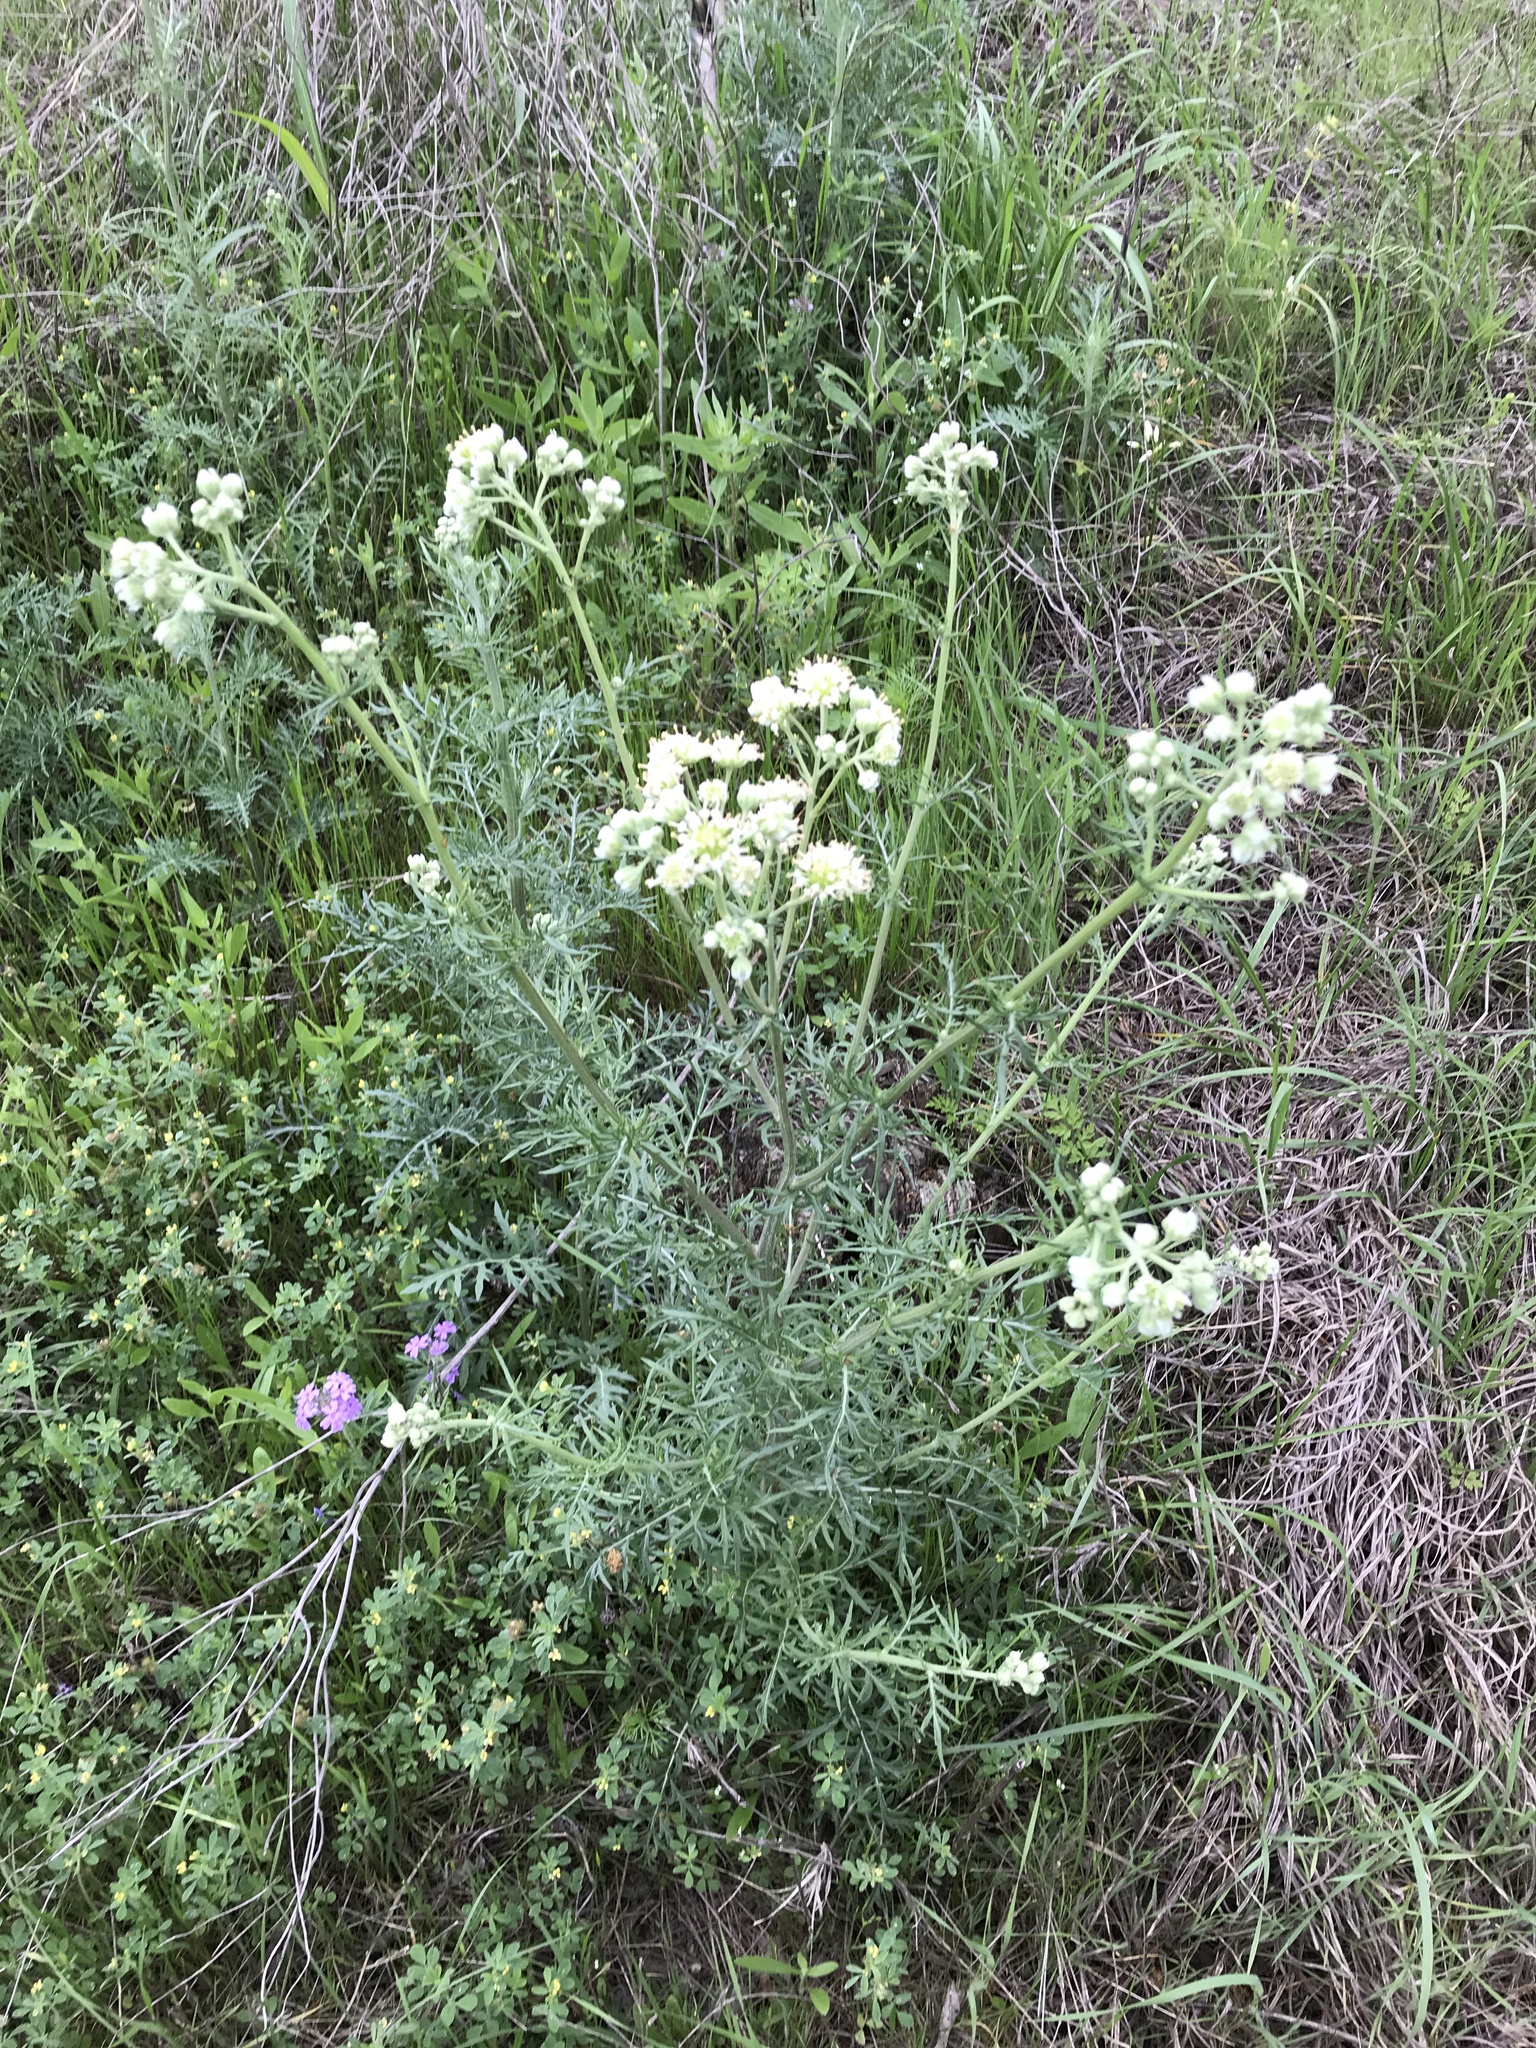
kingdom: Plantae
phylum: Tracheophyta
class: Magnoliopsida
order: Asterales
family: Asteraceae
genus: Hymenopappus
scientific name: Hymenopappus scabiosaeus
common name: Carolina woollywhite
